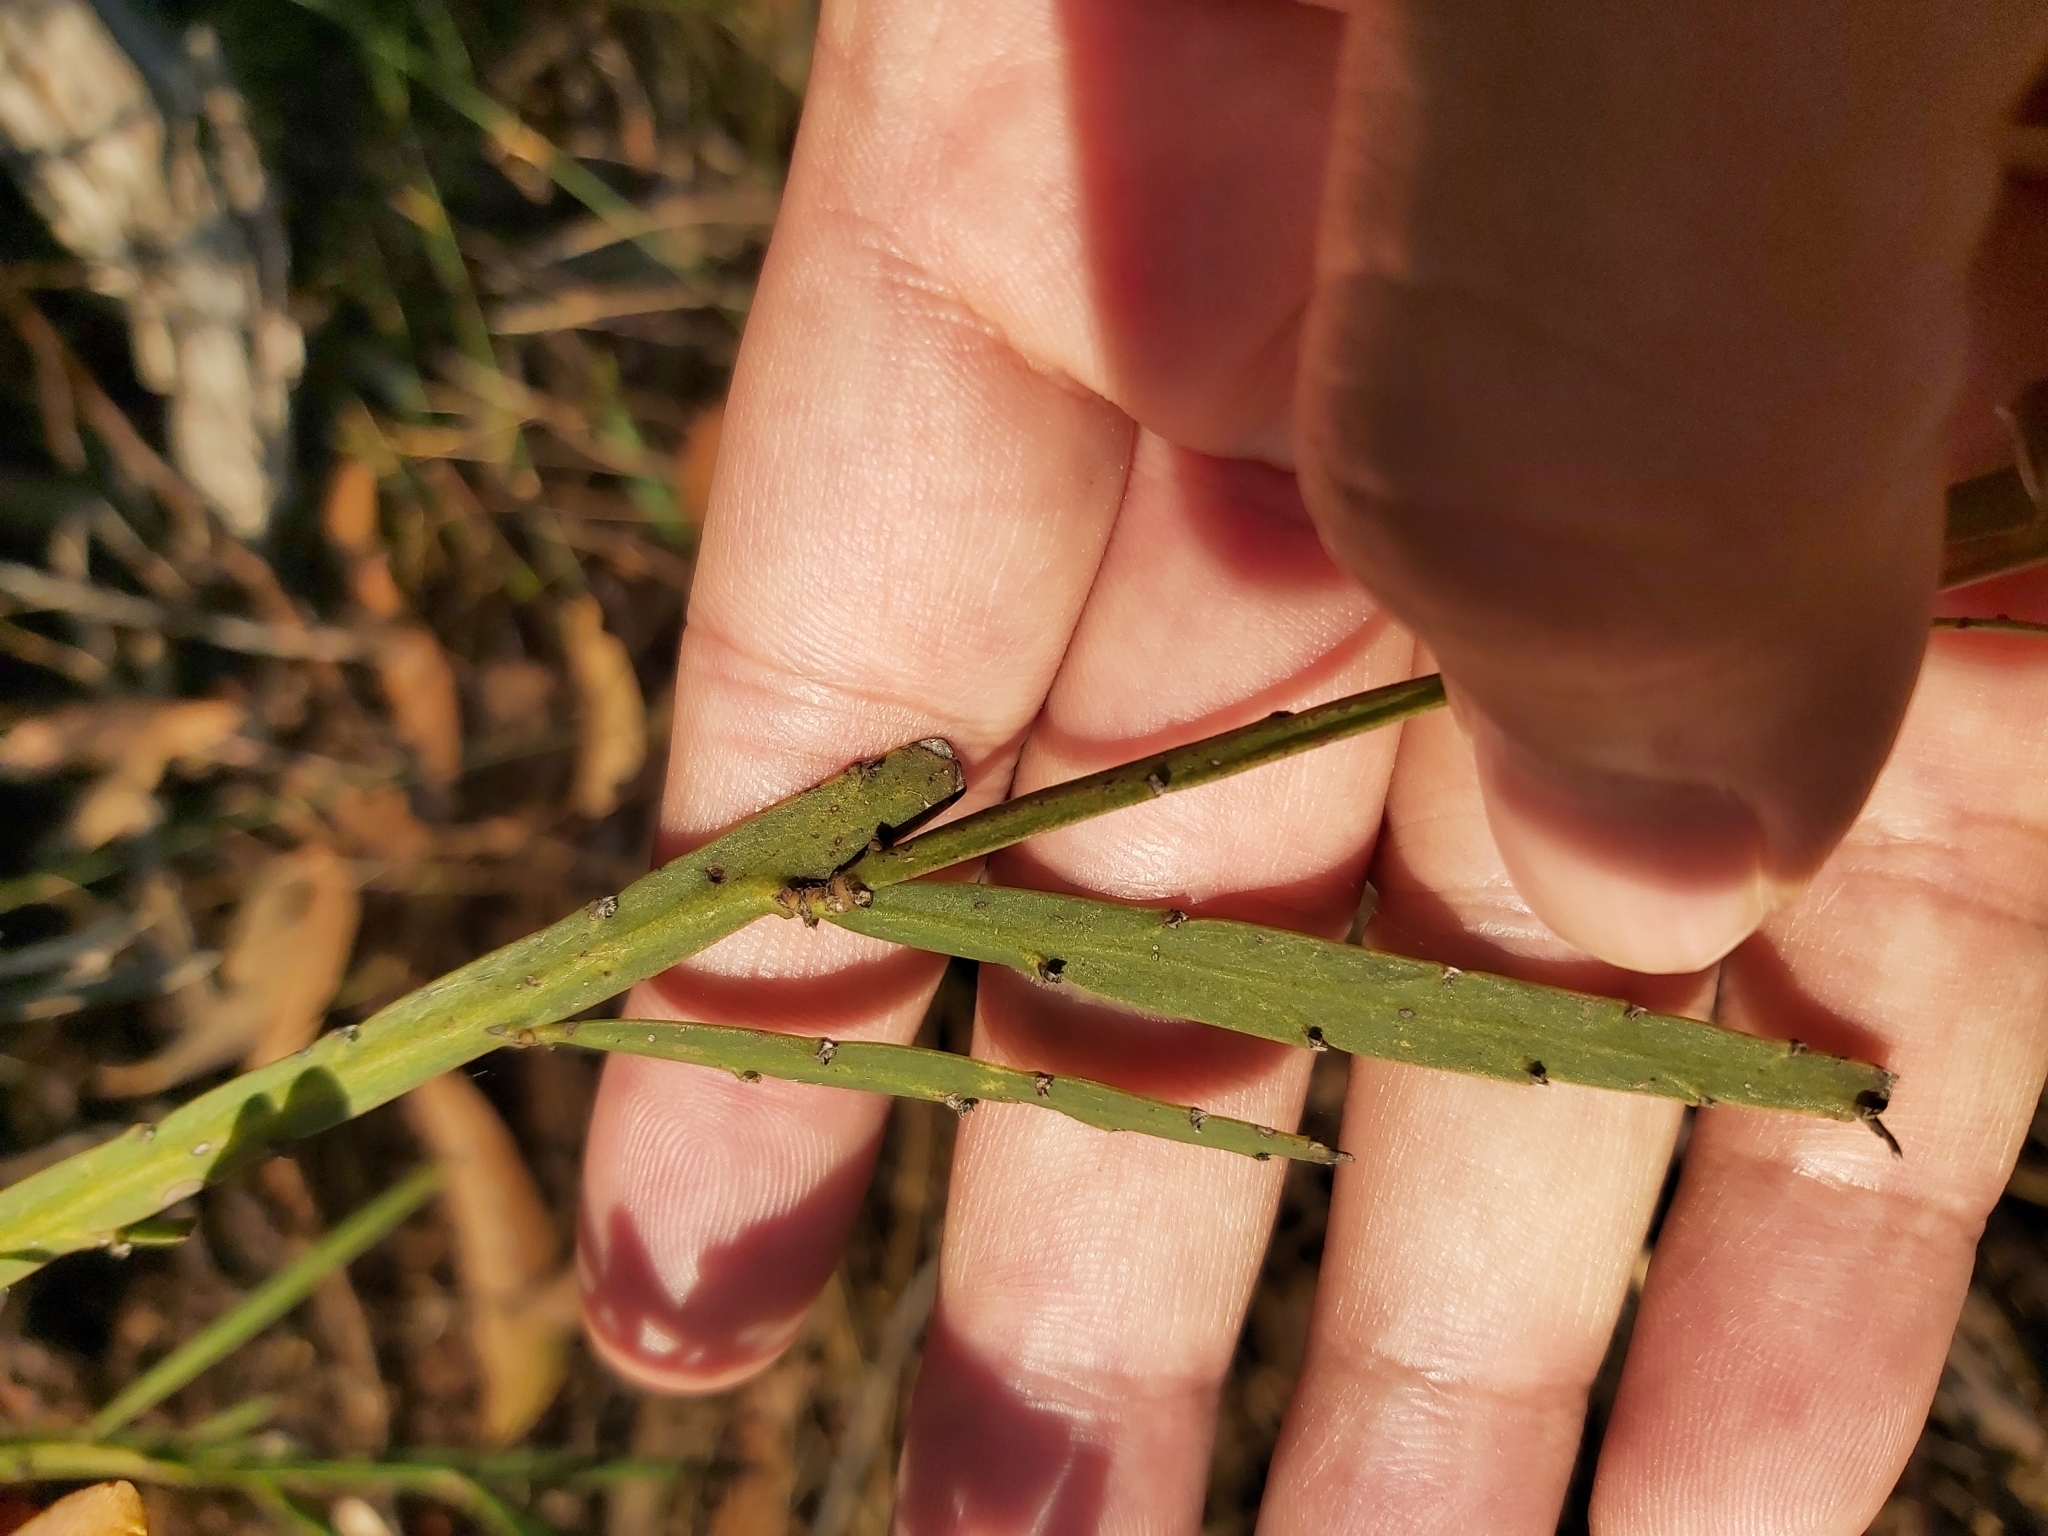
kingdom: Plantae
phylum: Tracheophyta
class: Magnoliopsida
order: Fabales
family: Fabaceae
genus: Bossiaea
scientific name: Bossiaea scolopendria
